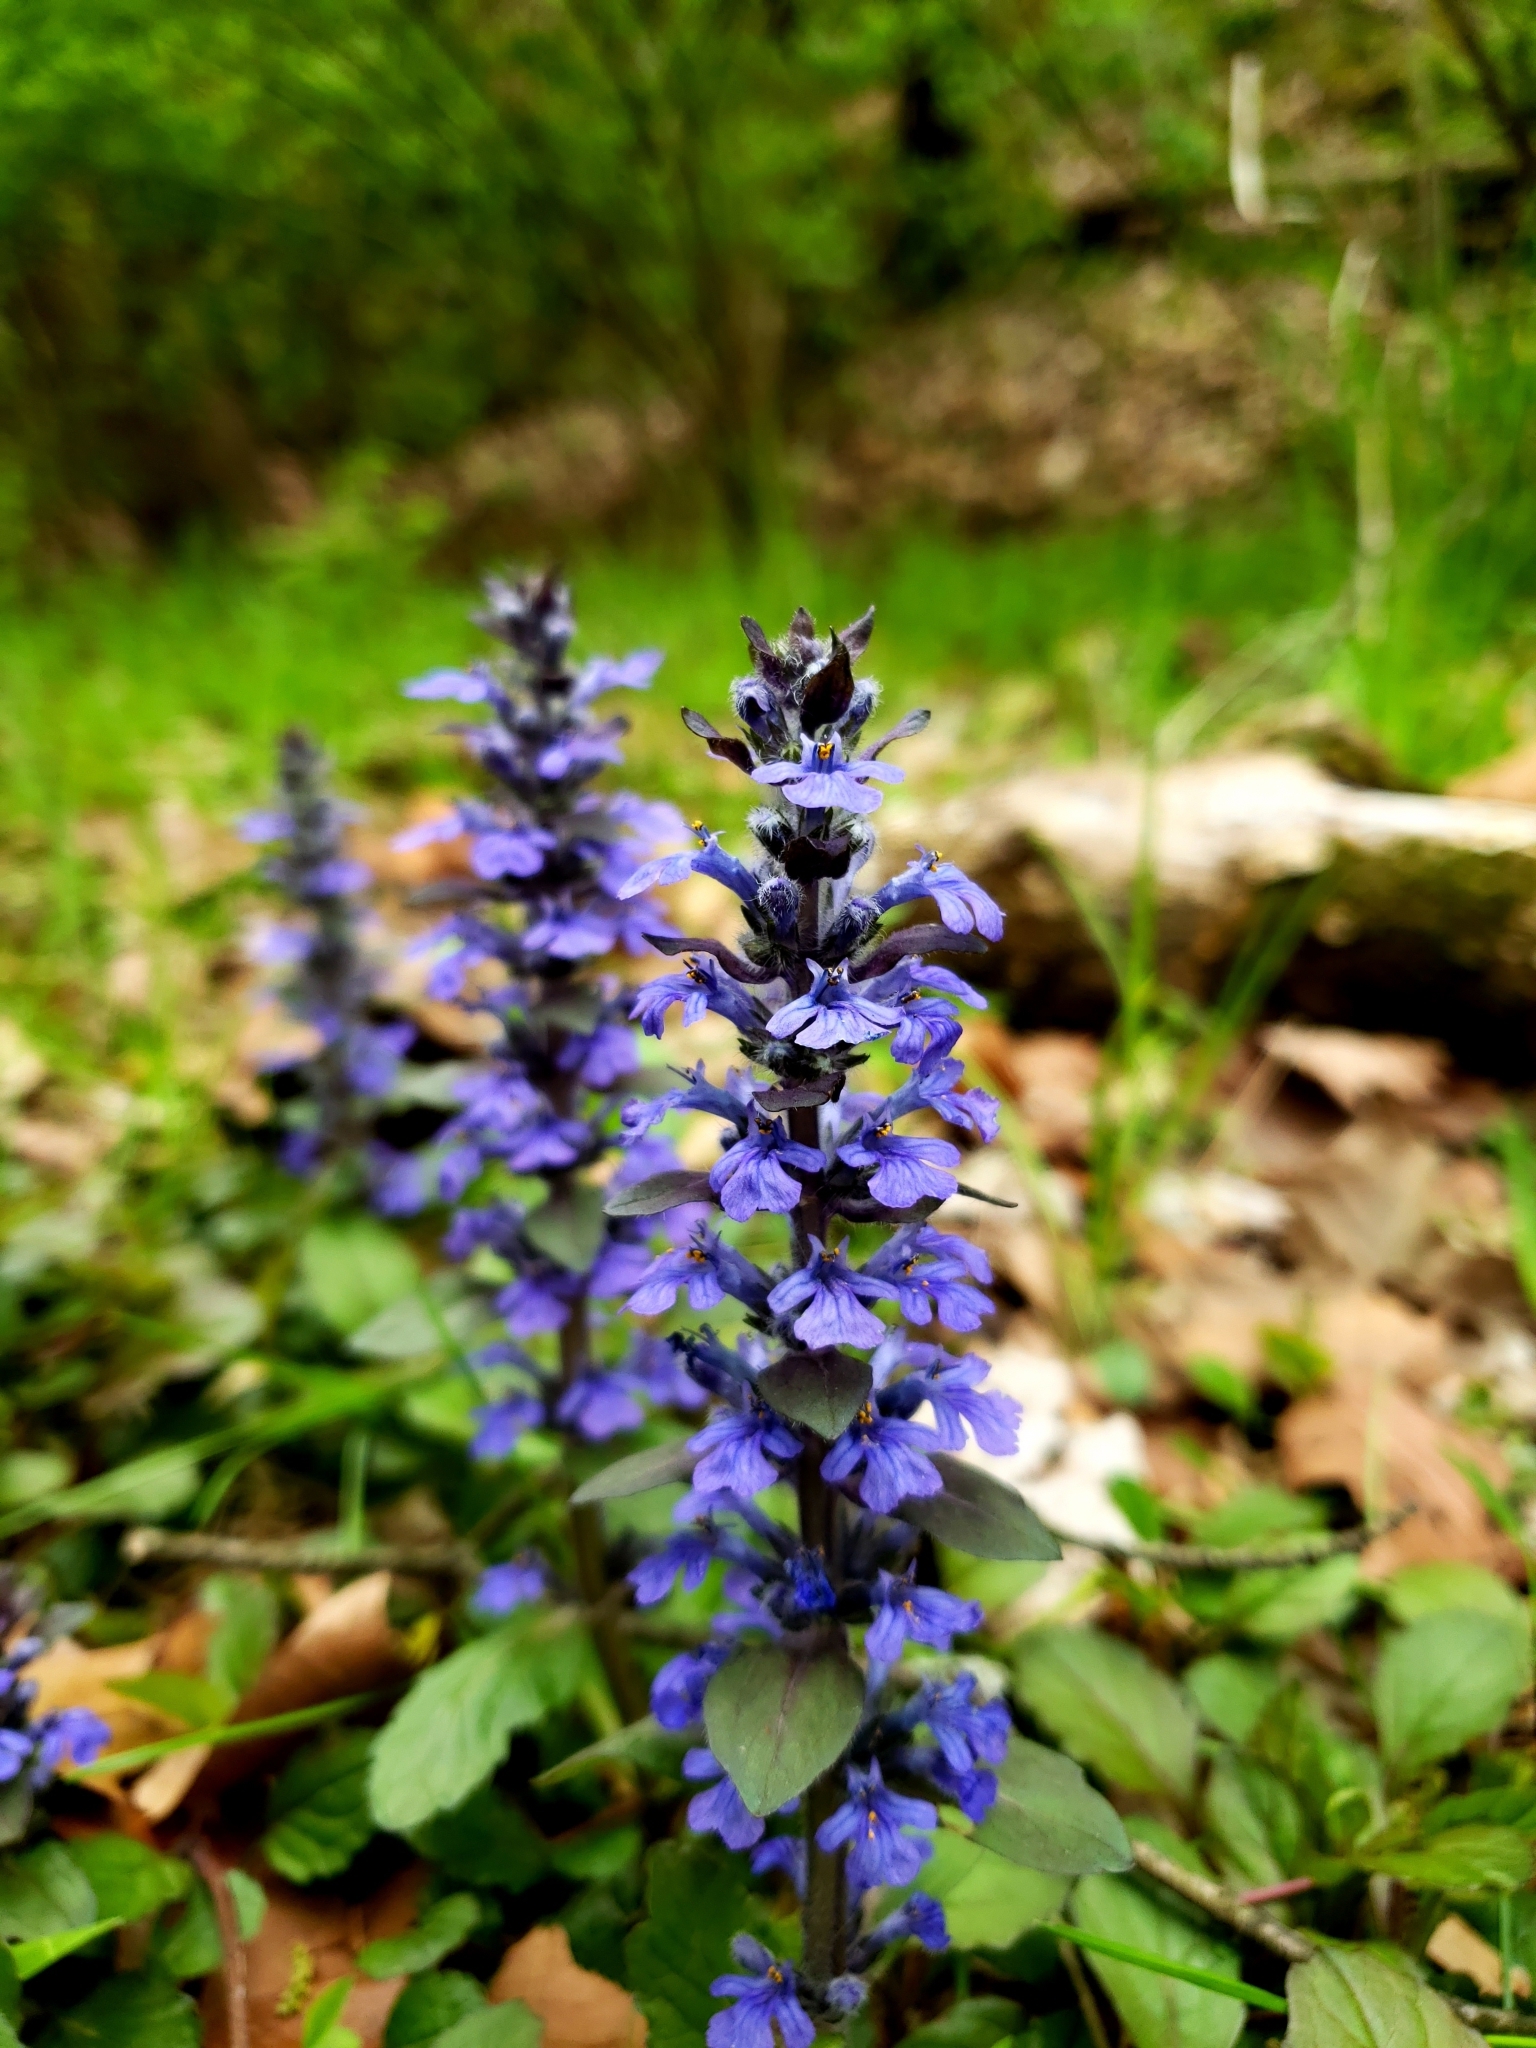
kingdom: Plantae
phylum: Tracheophyta
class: Magnoliopsida
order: Lamiales
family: Lamiaceae
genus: Ajuga
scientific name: Ajuga reptans
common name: Bugle
